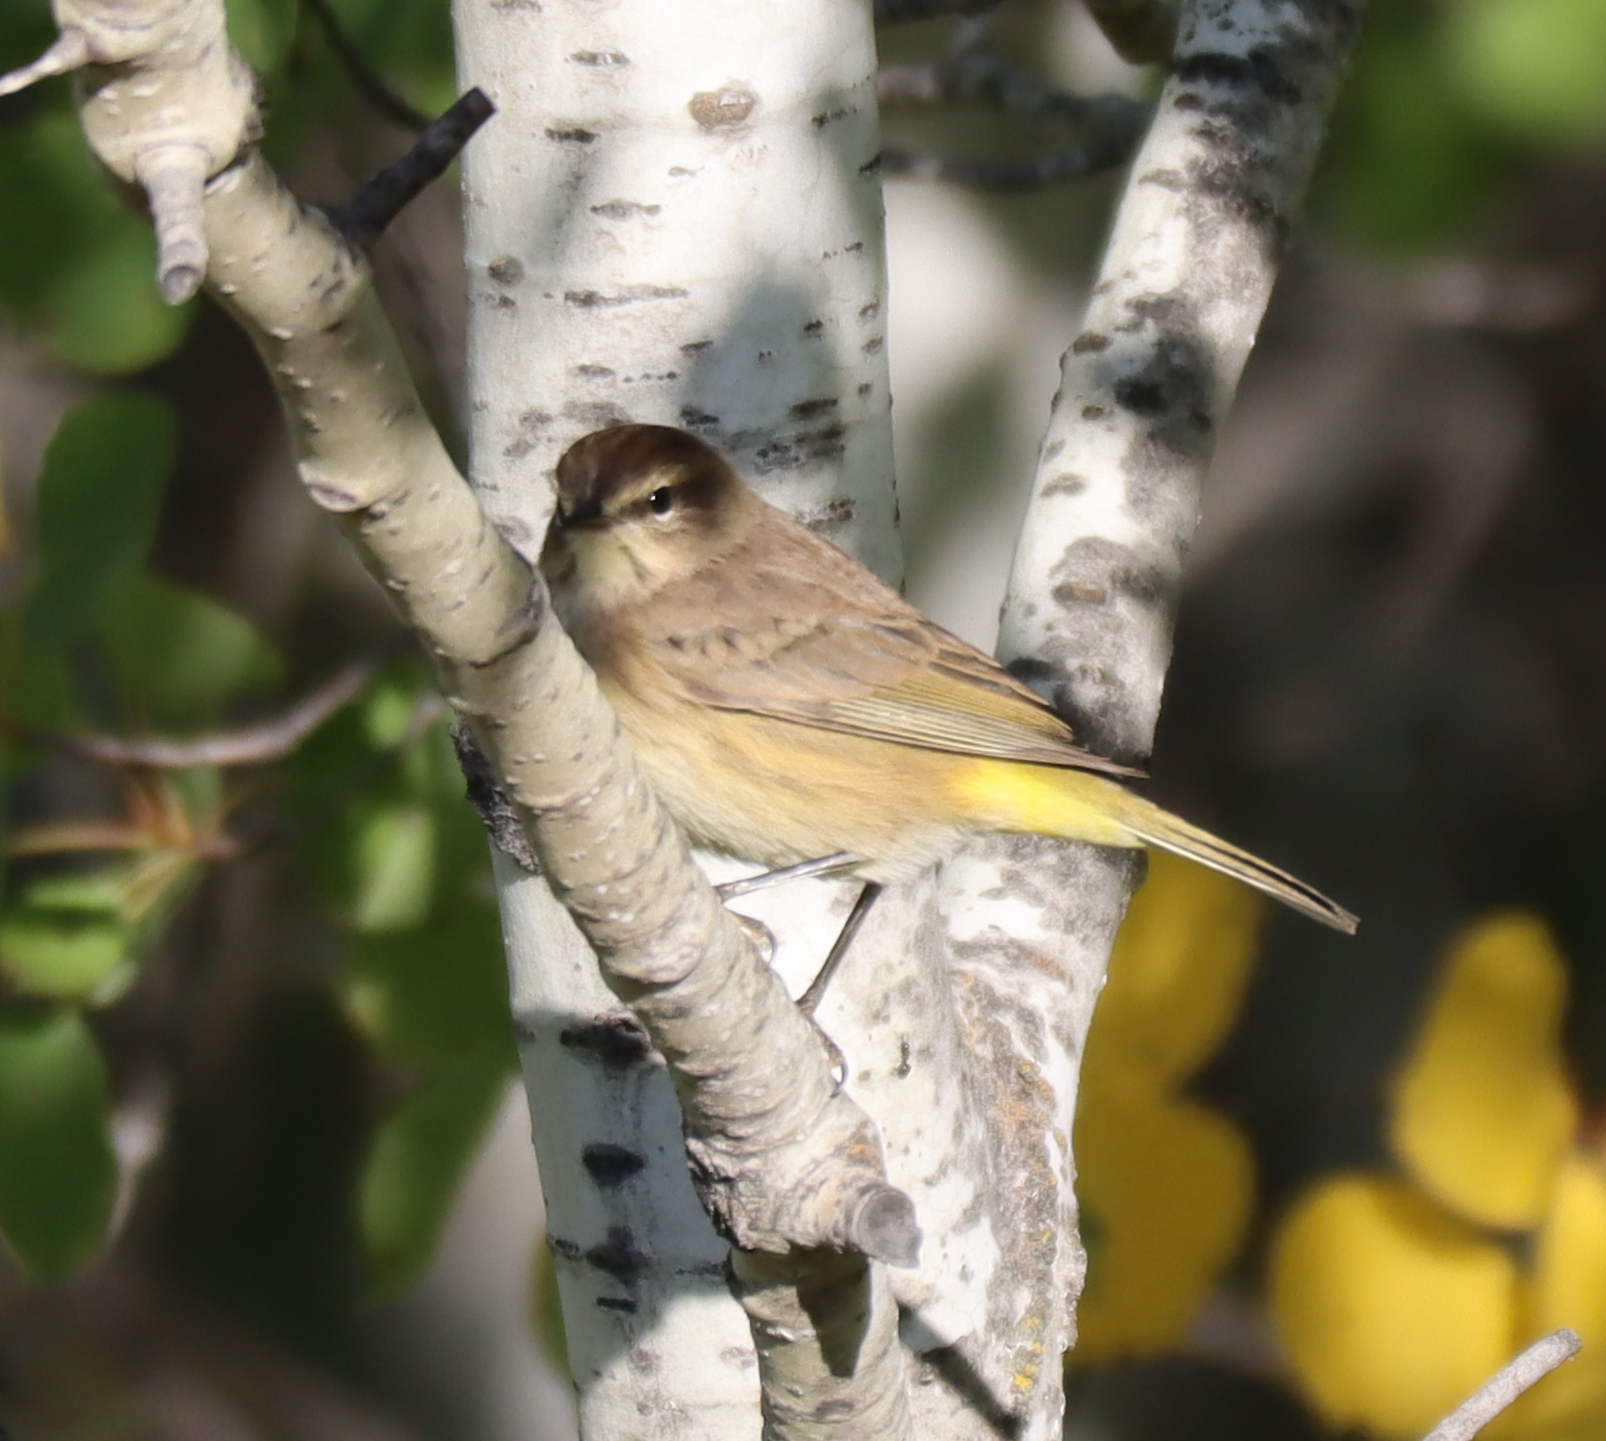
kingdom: Animalia
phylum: Chordata
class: Aves
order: Passeriformes
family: Parulidae
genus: Setophaga
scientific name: Setophaga palmarum
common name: Palm warbler
